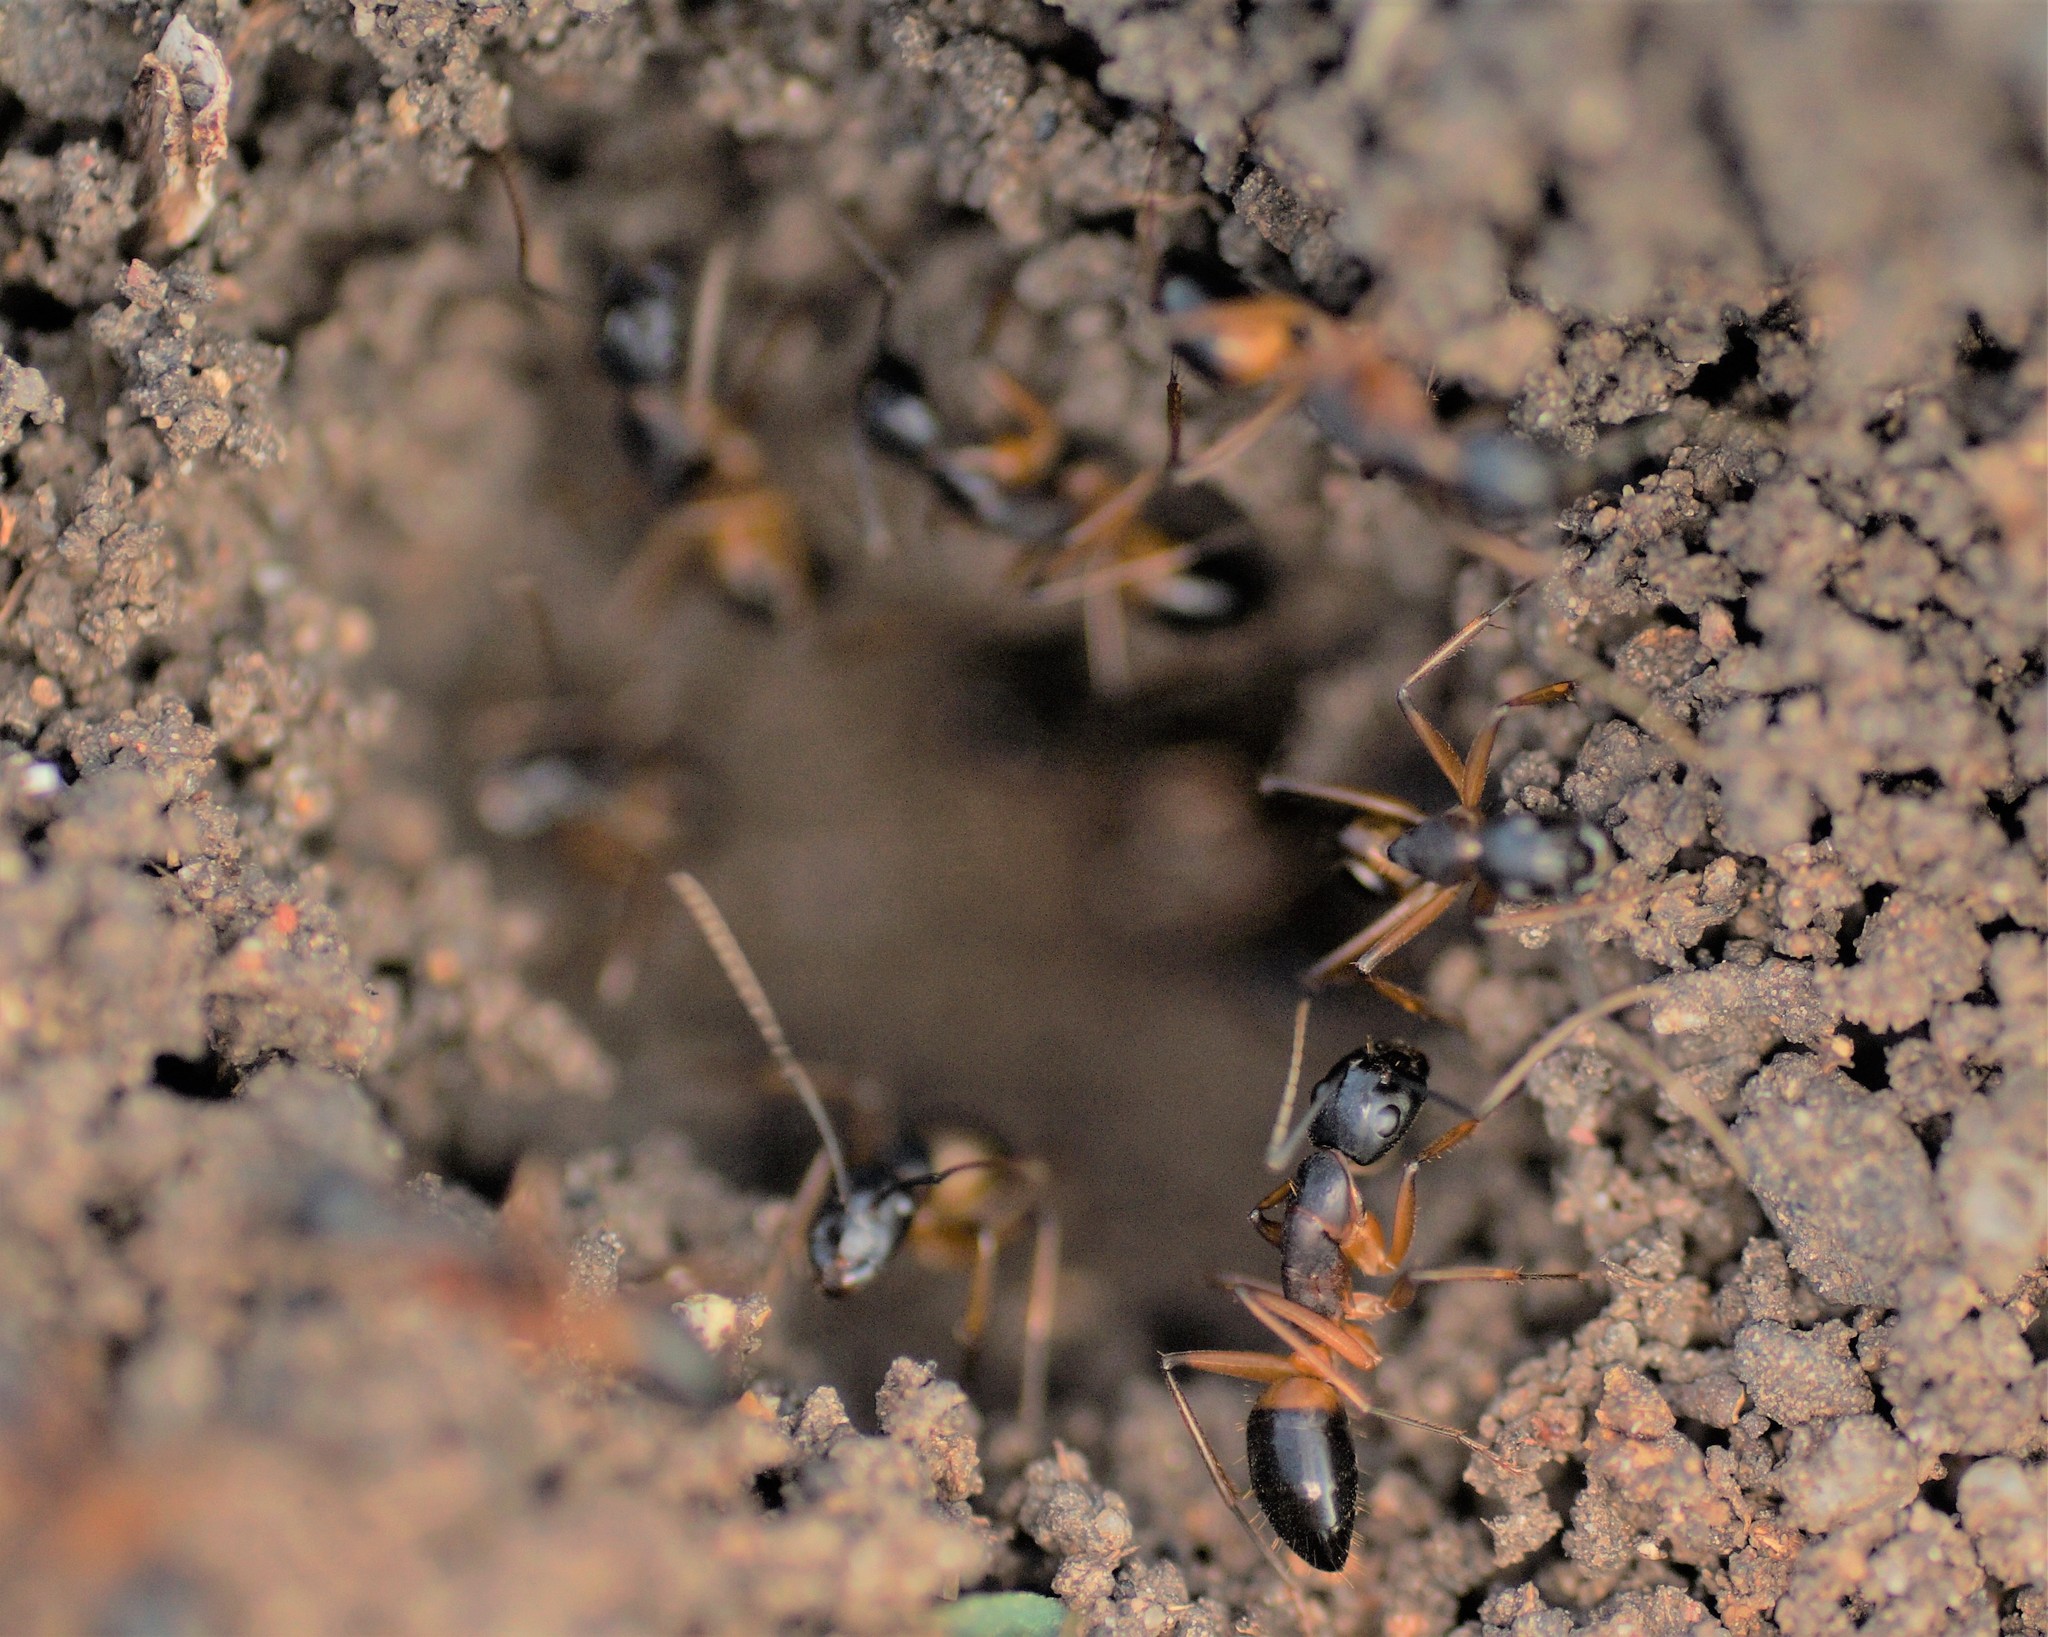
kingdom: Animalia
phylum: Arthropoda
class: Insecta
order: Hymenoptera
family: Formicidae
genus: Camponotus
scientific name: Camponotus consobrinus
